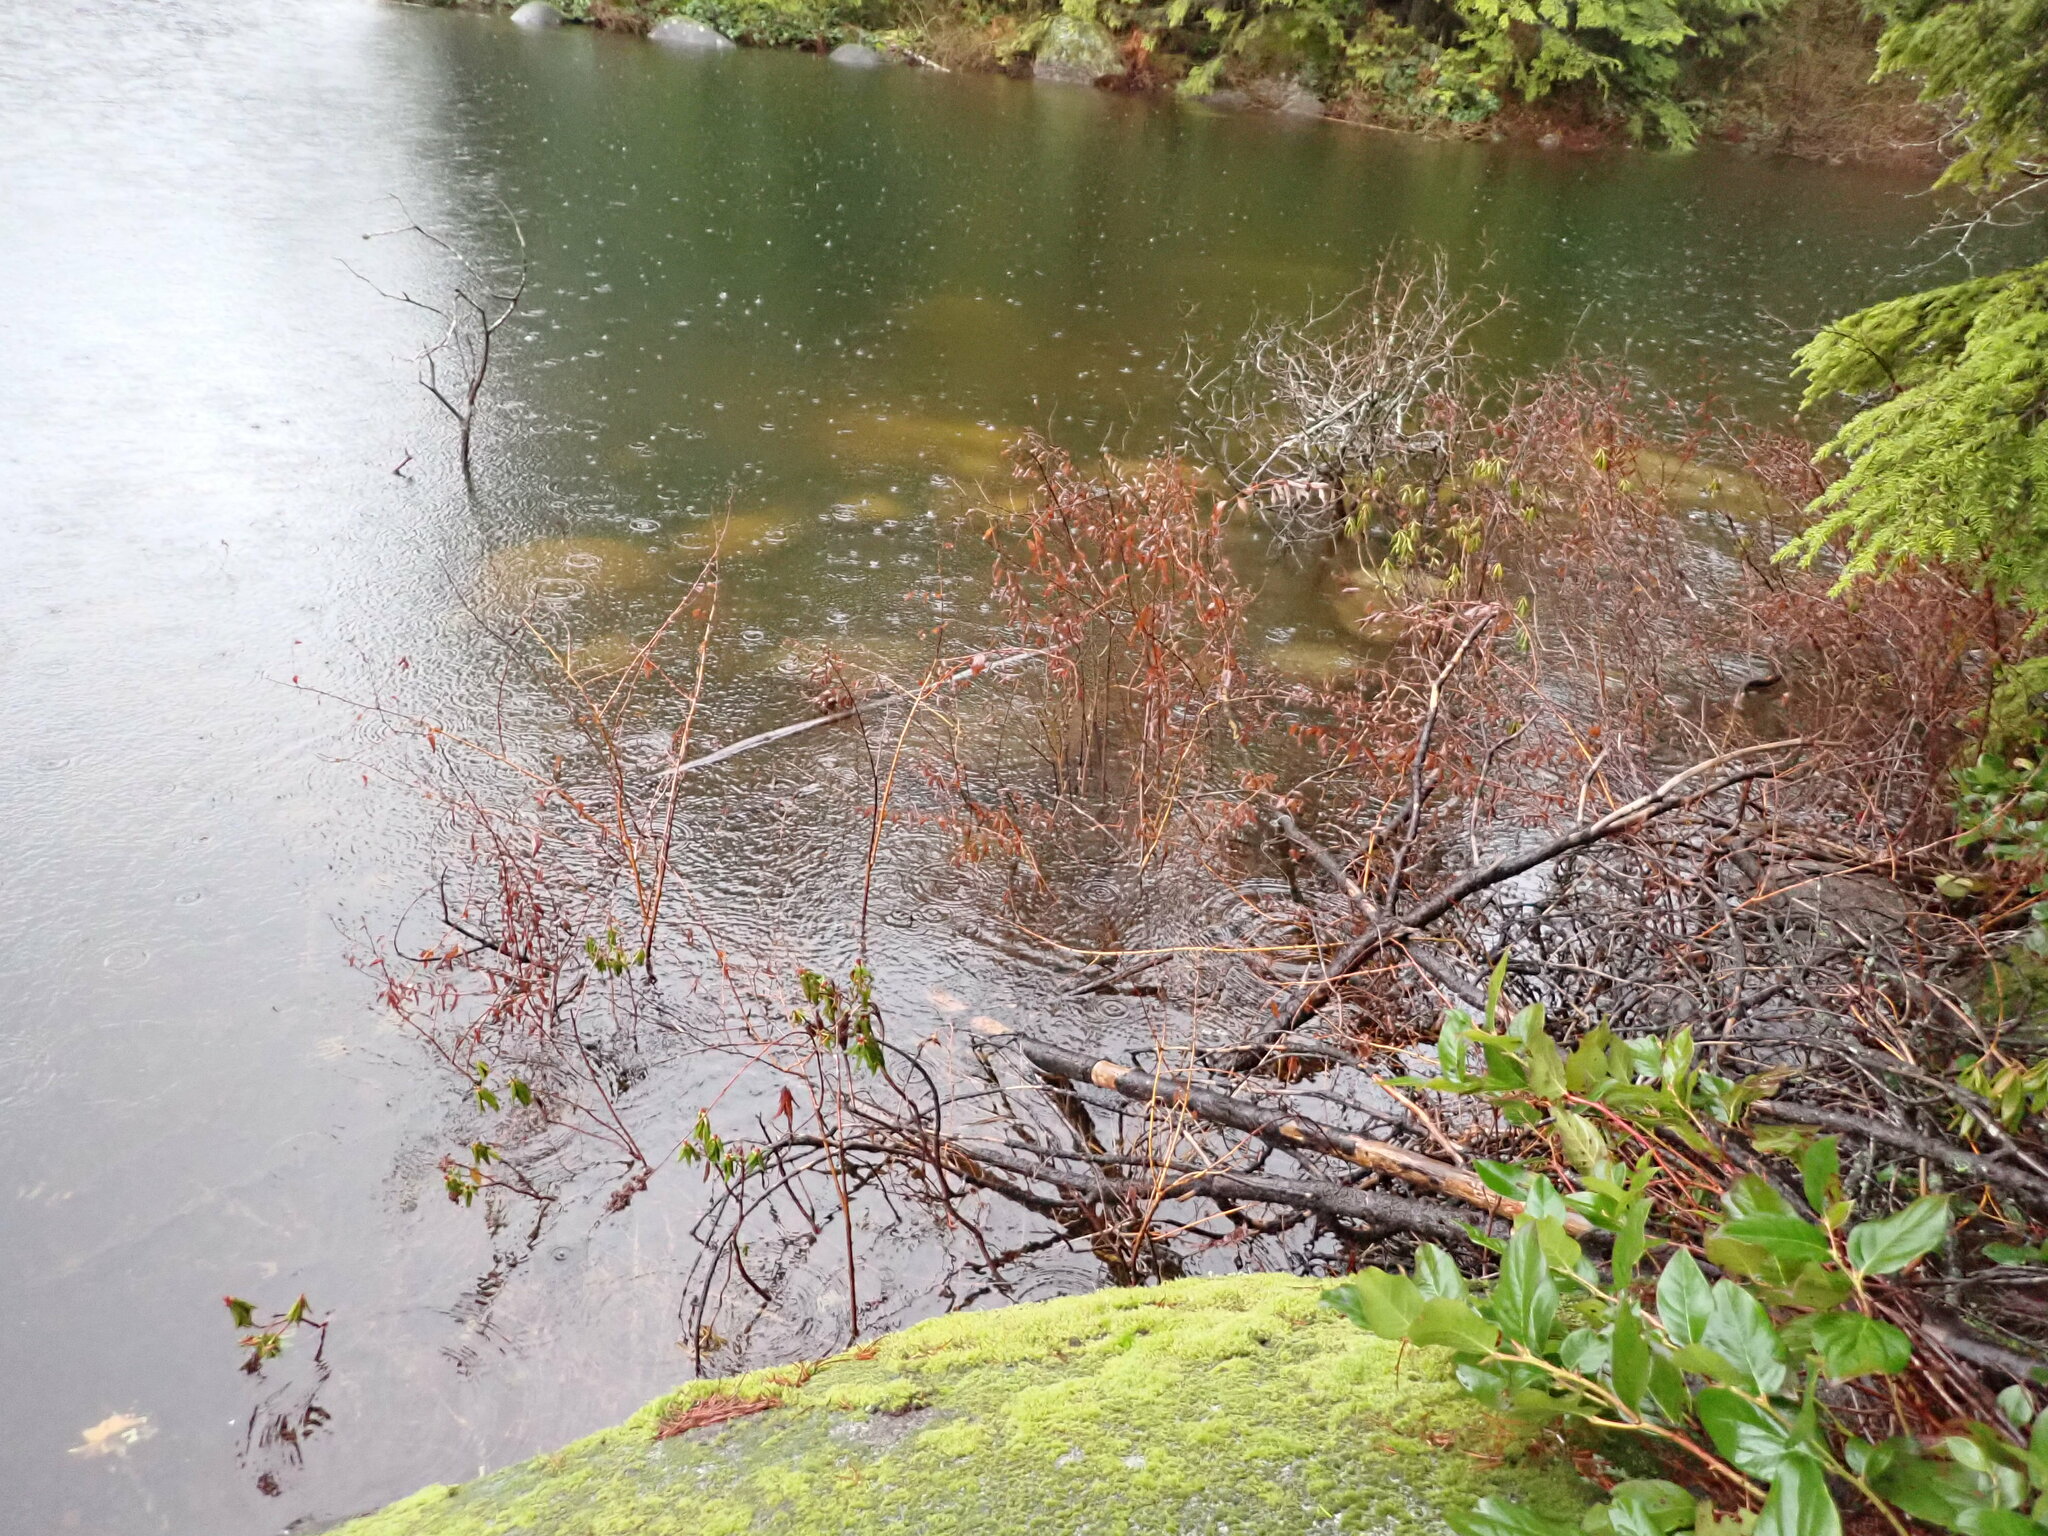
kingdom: Plantae
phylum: Tracheophyta
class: Magnoliopsida
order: Ericales
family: Ericaceae
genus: Rhododendron
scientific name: Rhododendron groenlandicum
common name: Bog labrador tea
